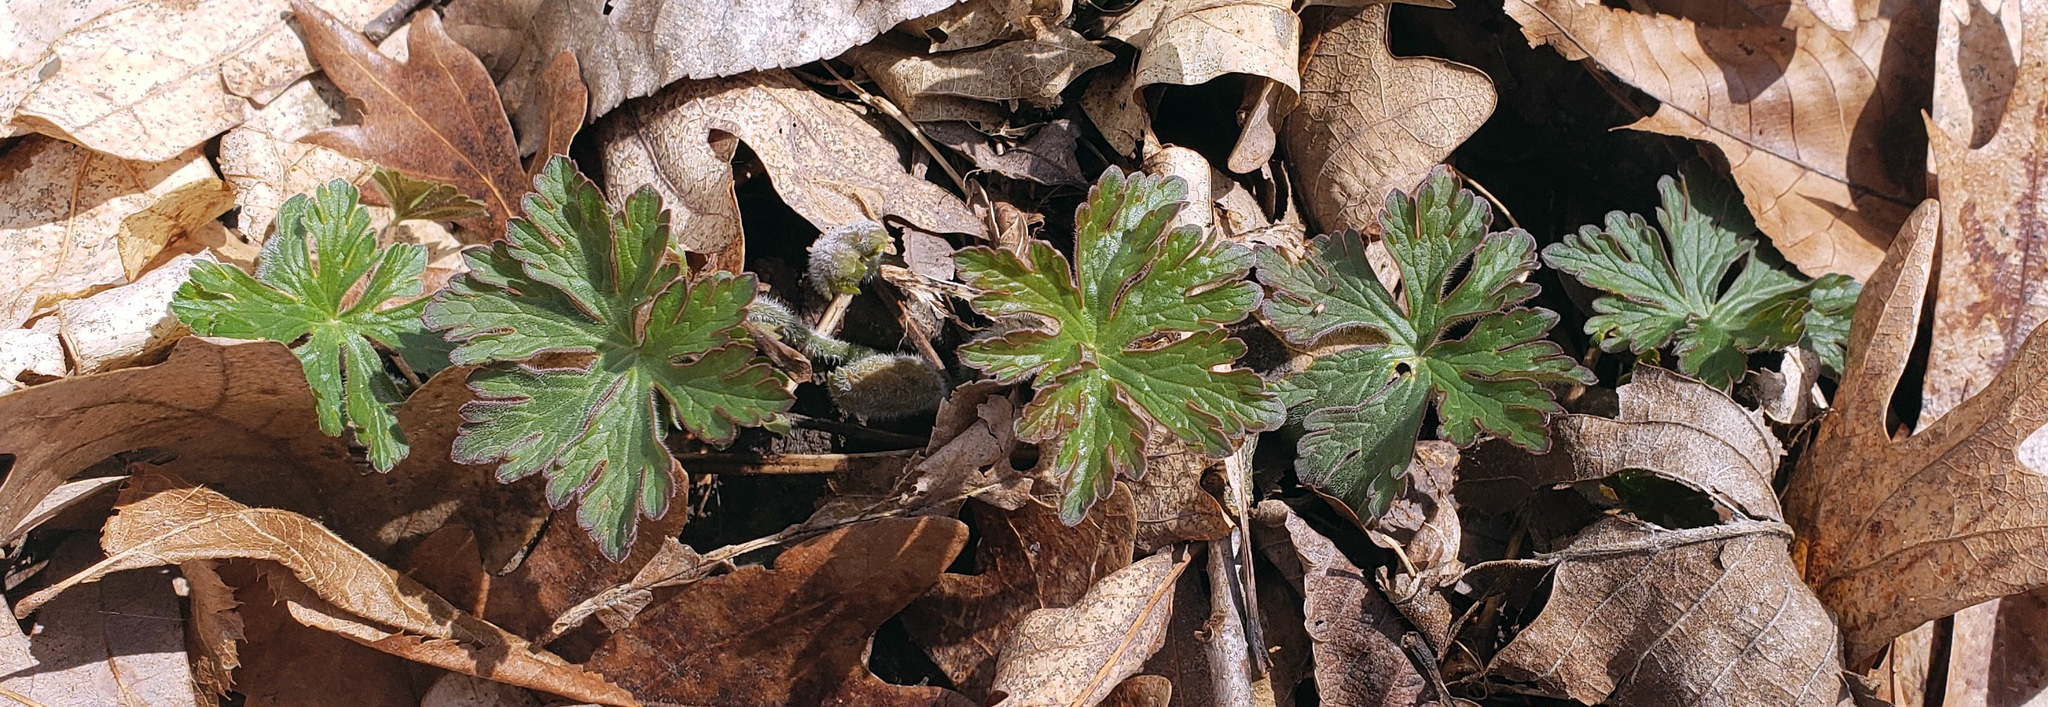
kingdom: Plantae
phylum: Tracheophyta
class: Magnoliopsida
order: Geraniales
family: Geraniaceae
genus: Geranium
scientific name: Geranium maculatum
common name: Spotted geranium
